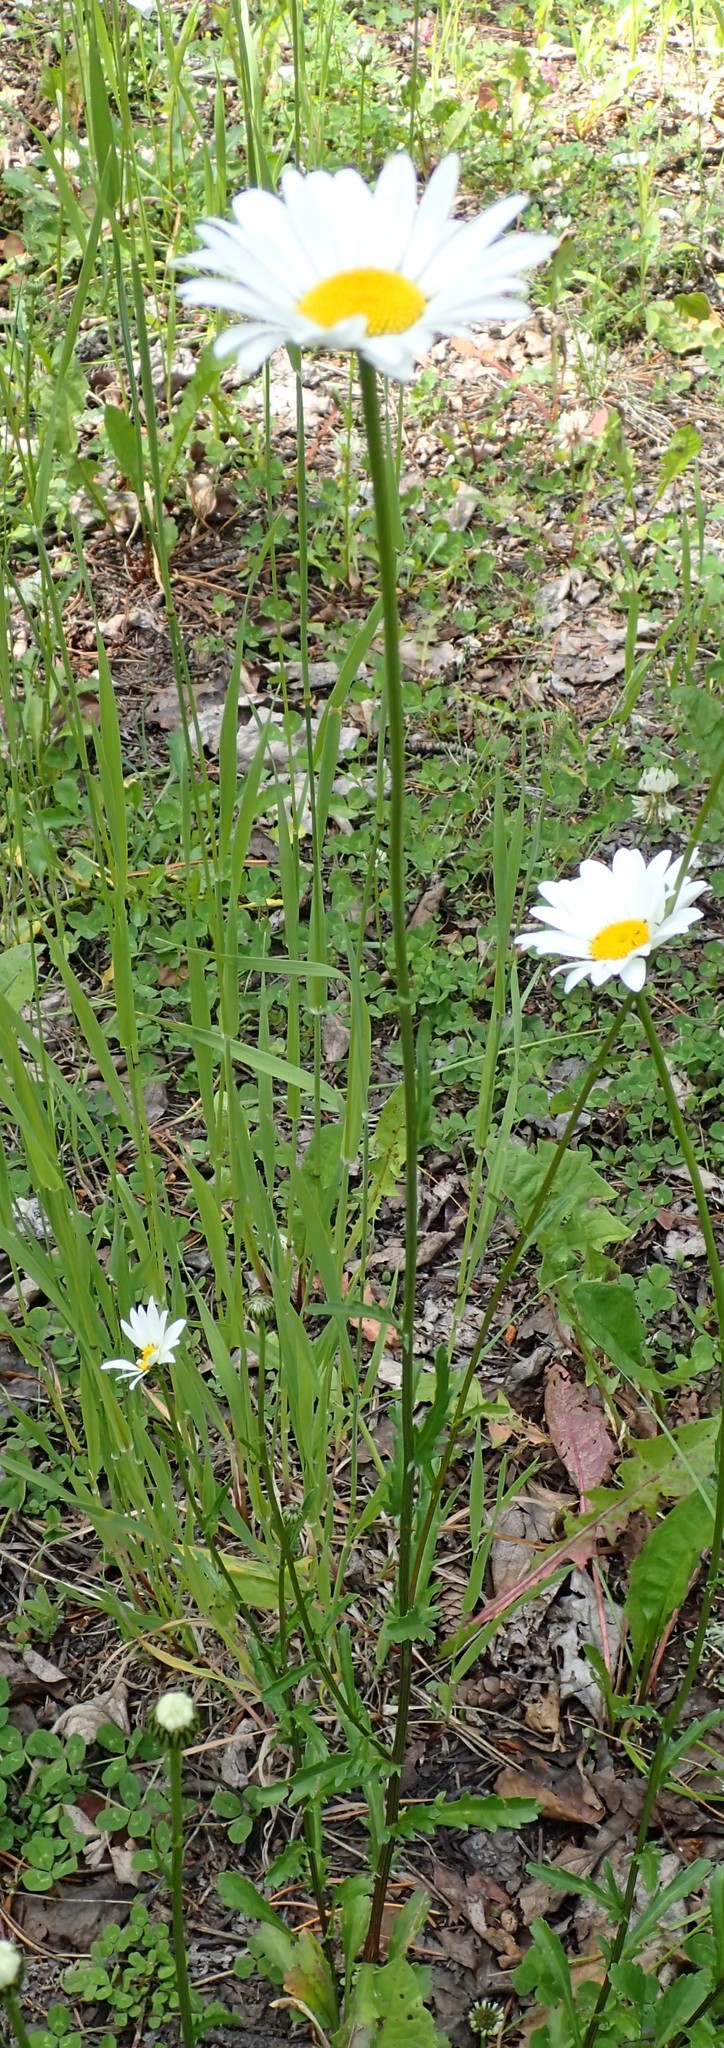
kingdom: Plantae
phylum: Tracheophyta
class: Magnoliopsida
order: Asterales
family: Asteraceae
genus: Leucanthemum
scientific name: Leucanthemum vulgare
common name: Oxeye daisy
